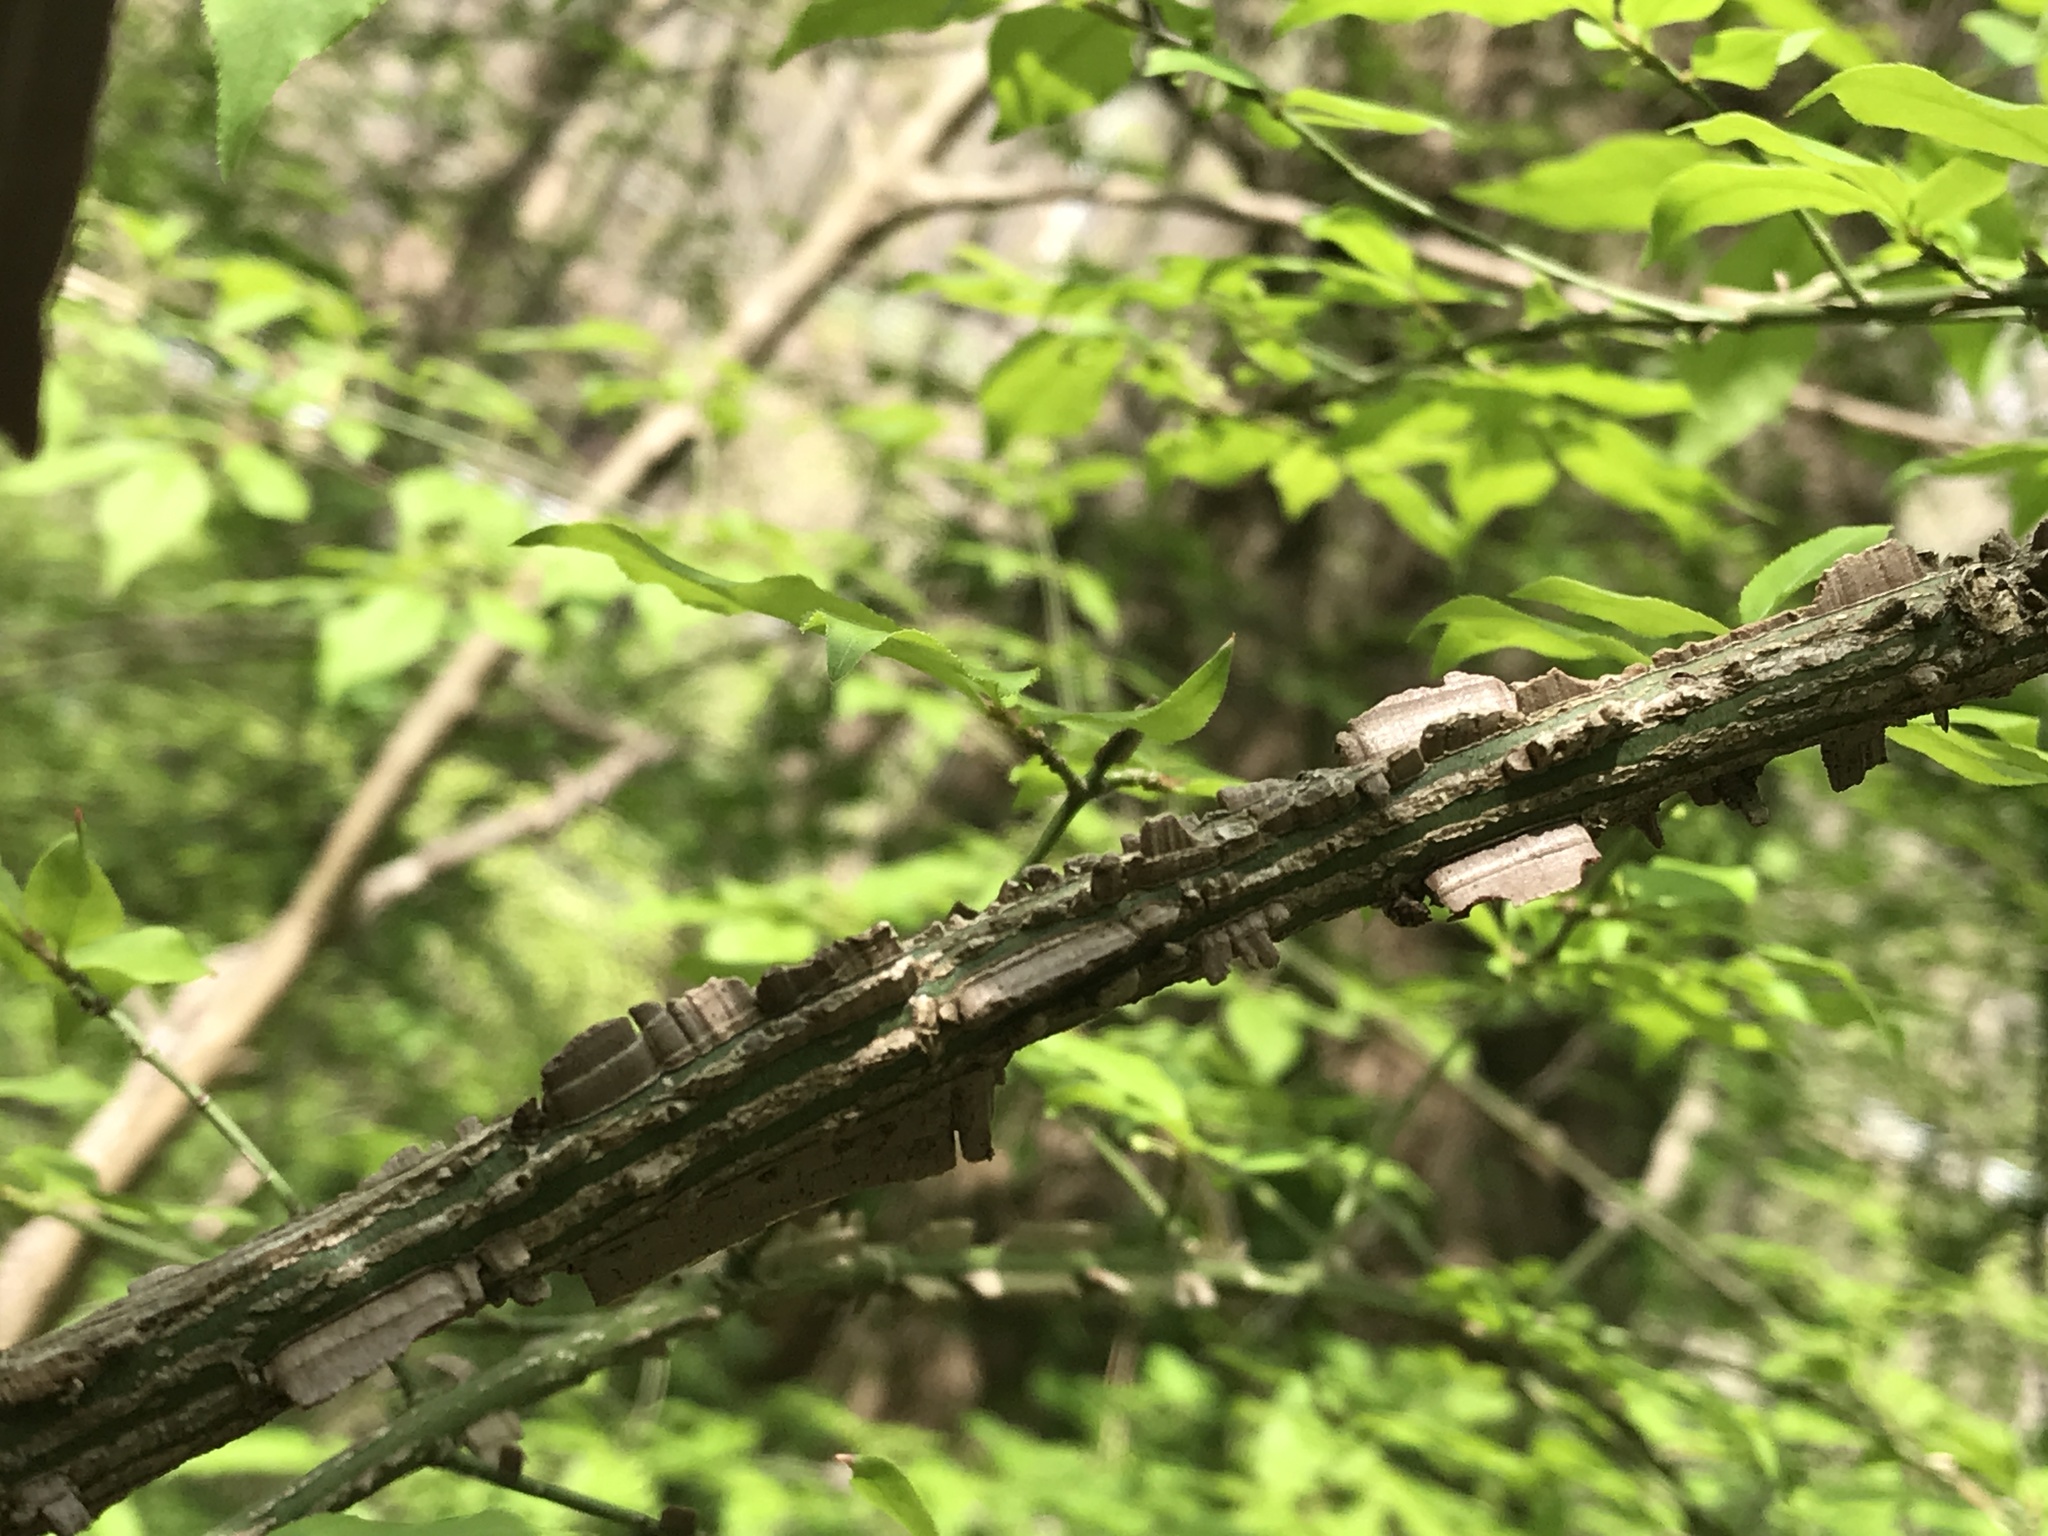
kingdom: Plantae
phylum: Tracheophyta
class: Magnoliopsida
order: Celastrales
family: Celastraceae
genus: Euonymus
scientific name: Euonymus alatus
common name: Winged euonymus
